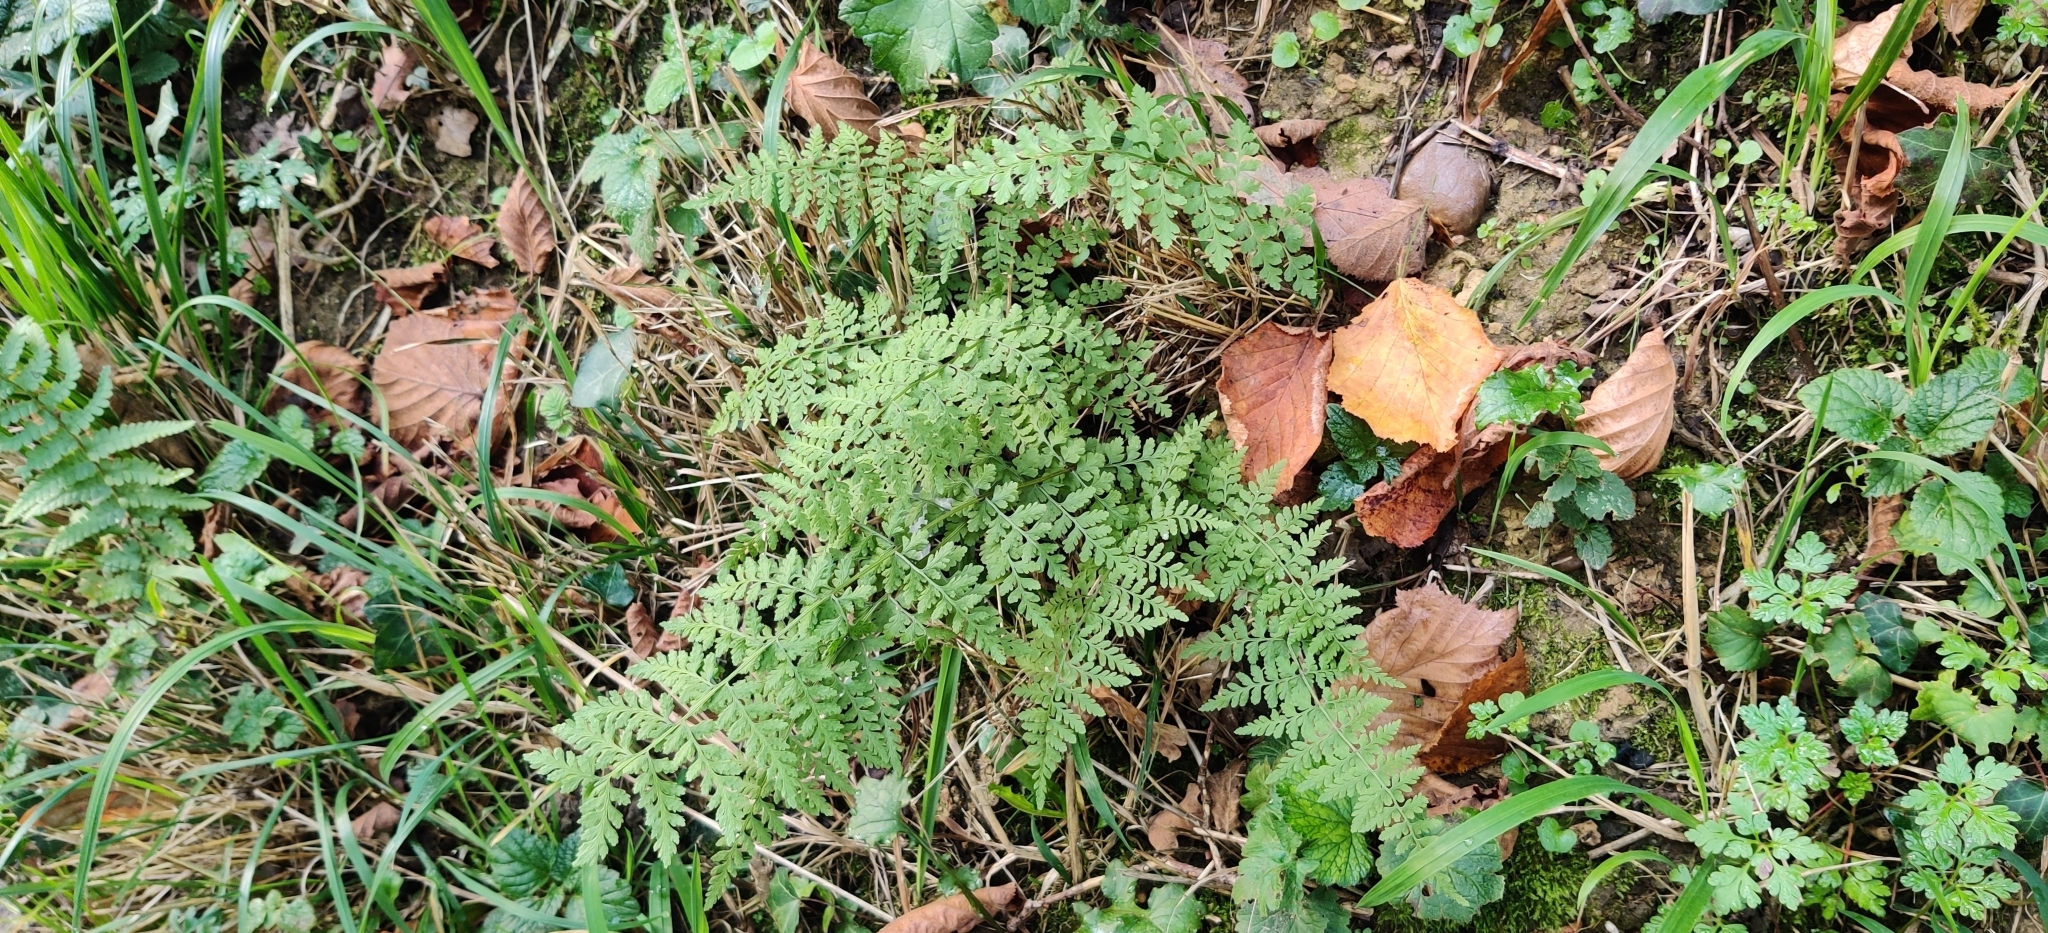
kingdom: Plantae
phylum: Tracheophyta
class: Polypodiopsida
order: Polypodiales
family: Cystopteridaceae
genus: Cystopteris
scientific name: Cystopteris fragilis
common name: Brittle bladder fern
